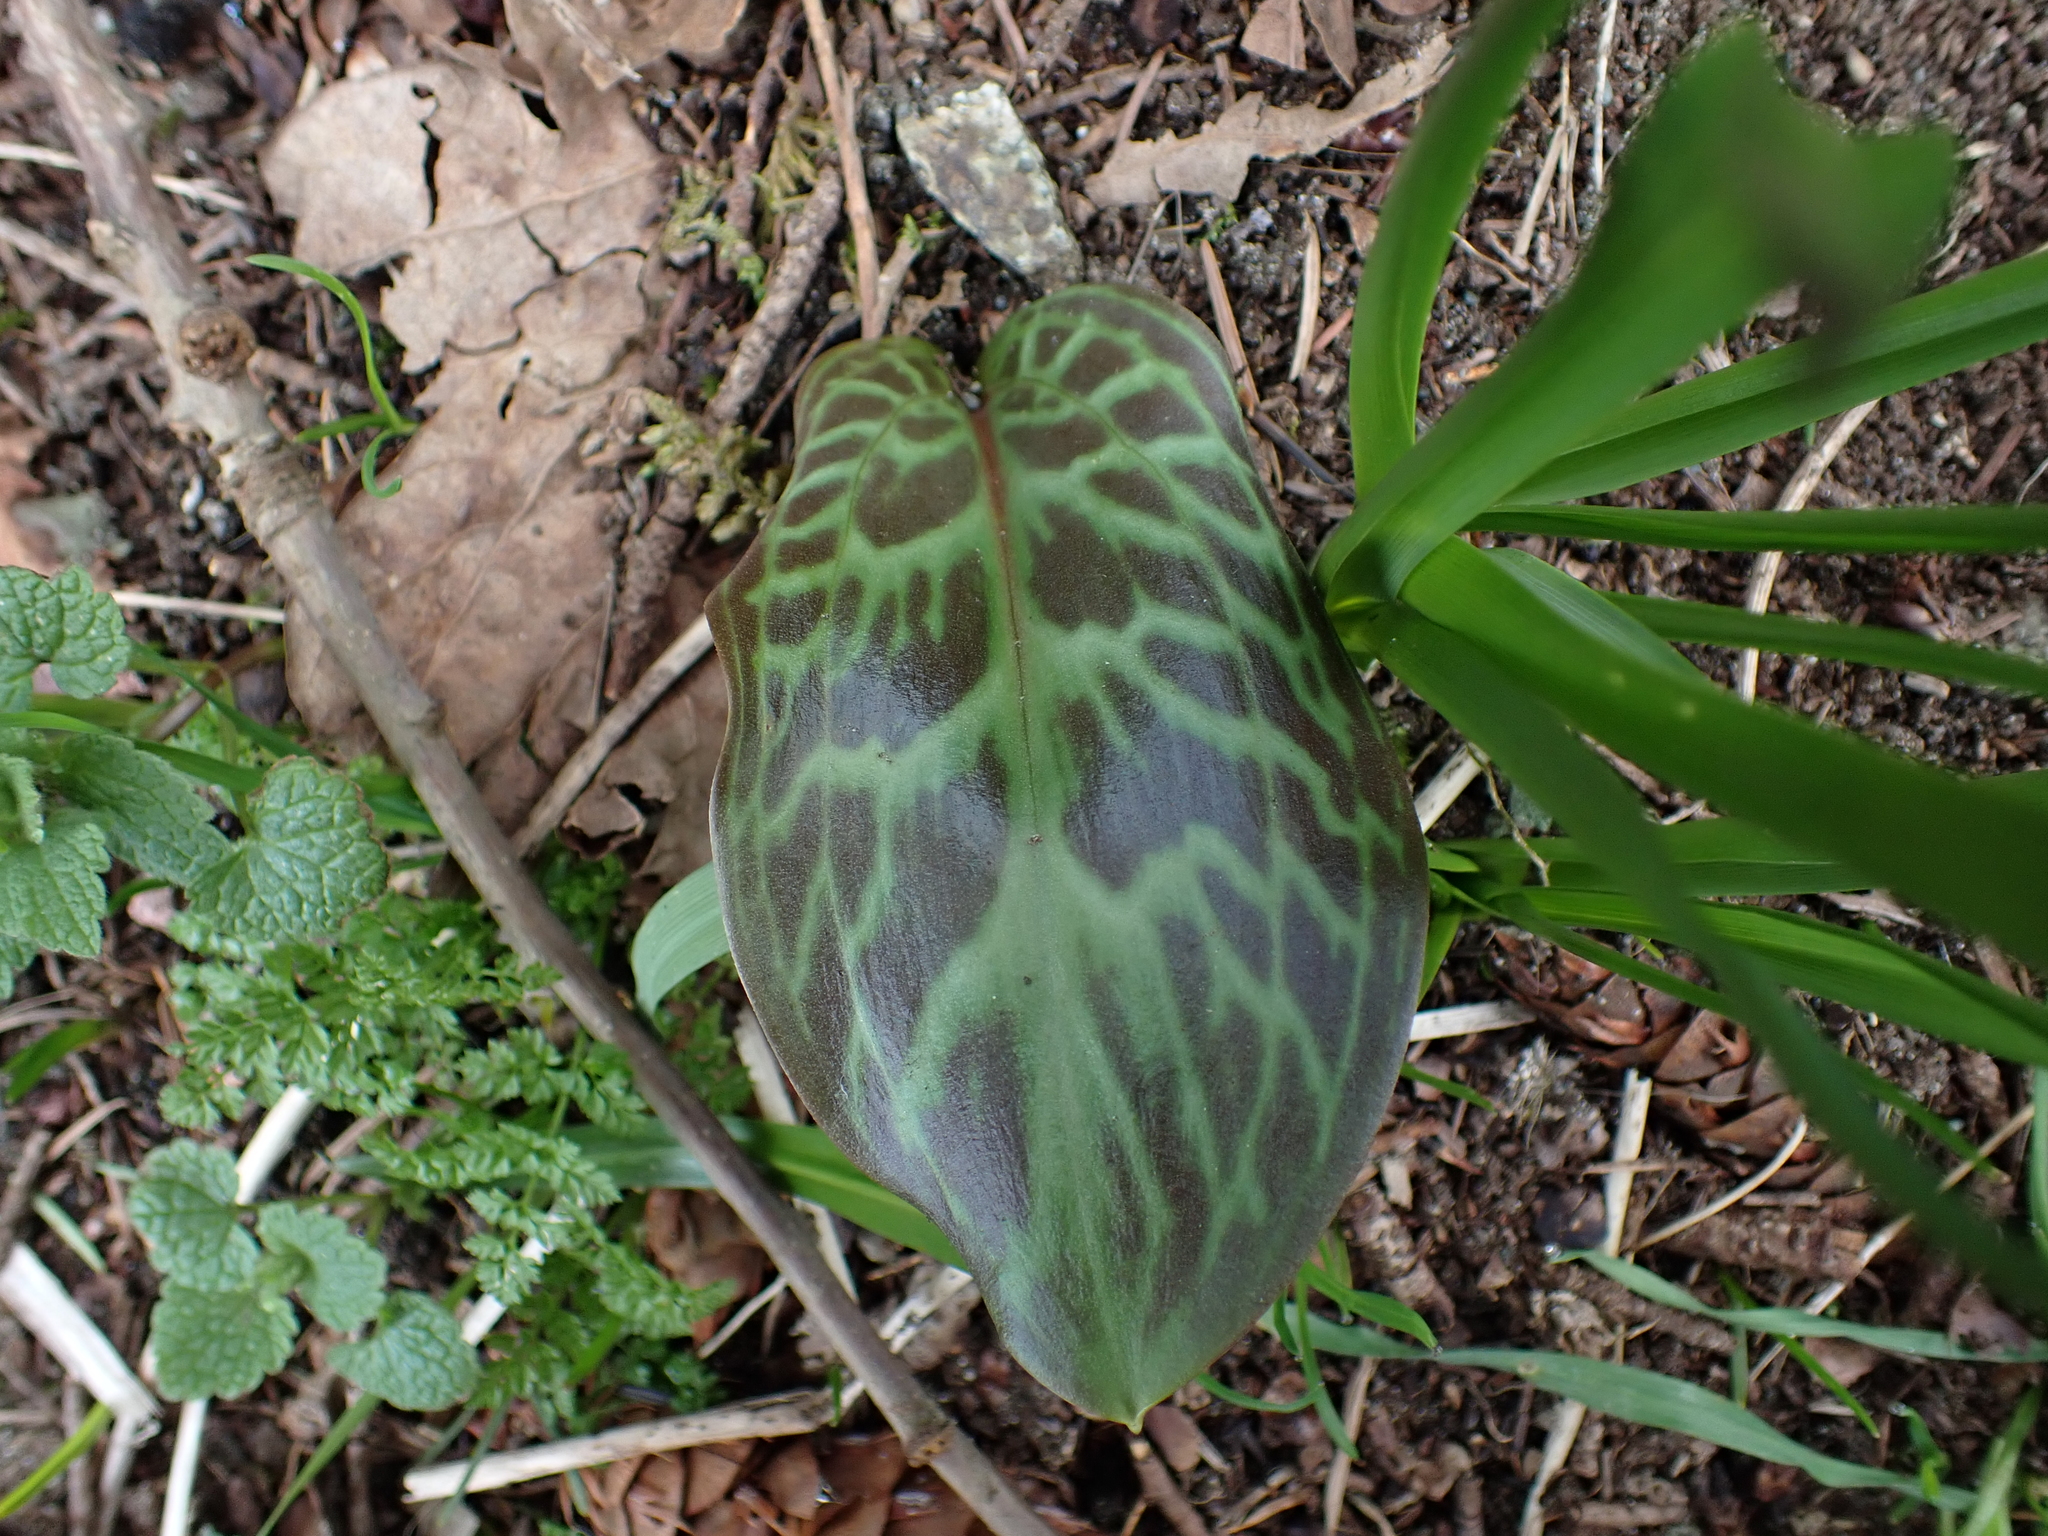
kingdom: Plantae
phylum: Tracheophyta
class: Liliopsida
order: Liliales
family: Liliaceae
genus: Erythronium
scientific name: Erythronium oregonum
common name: Giant adder's-tongue
